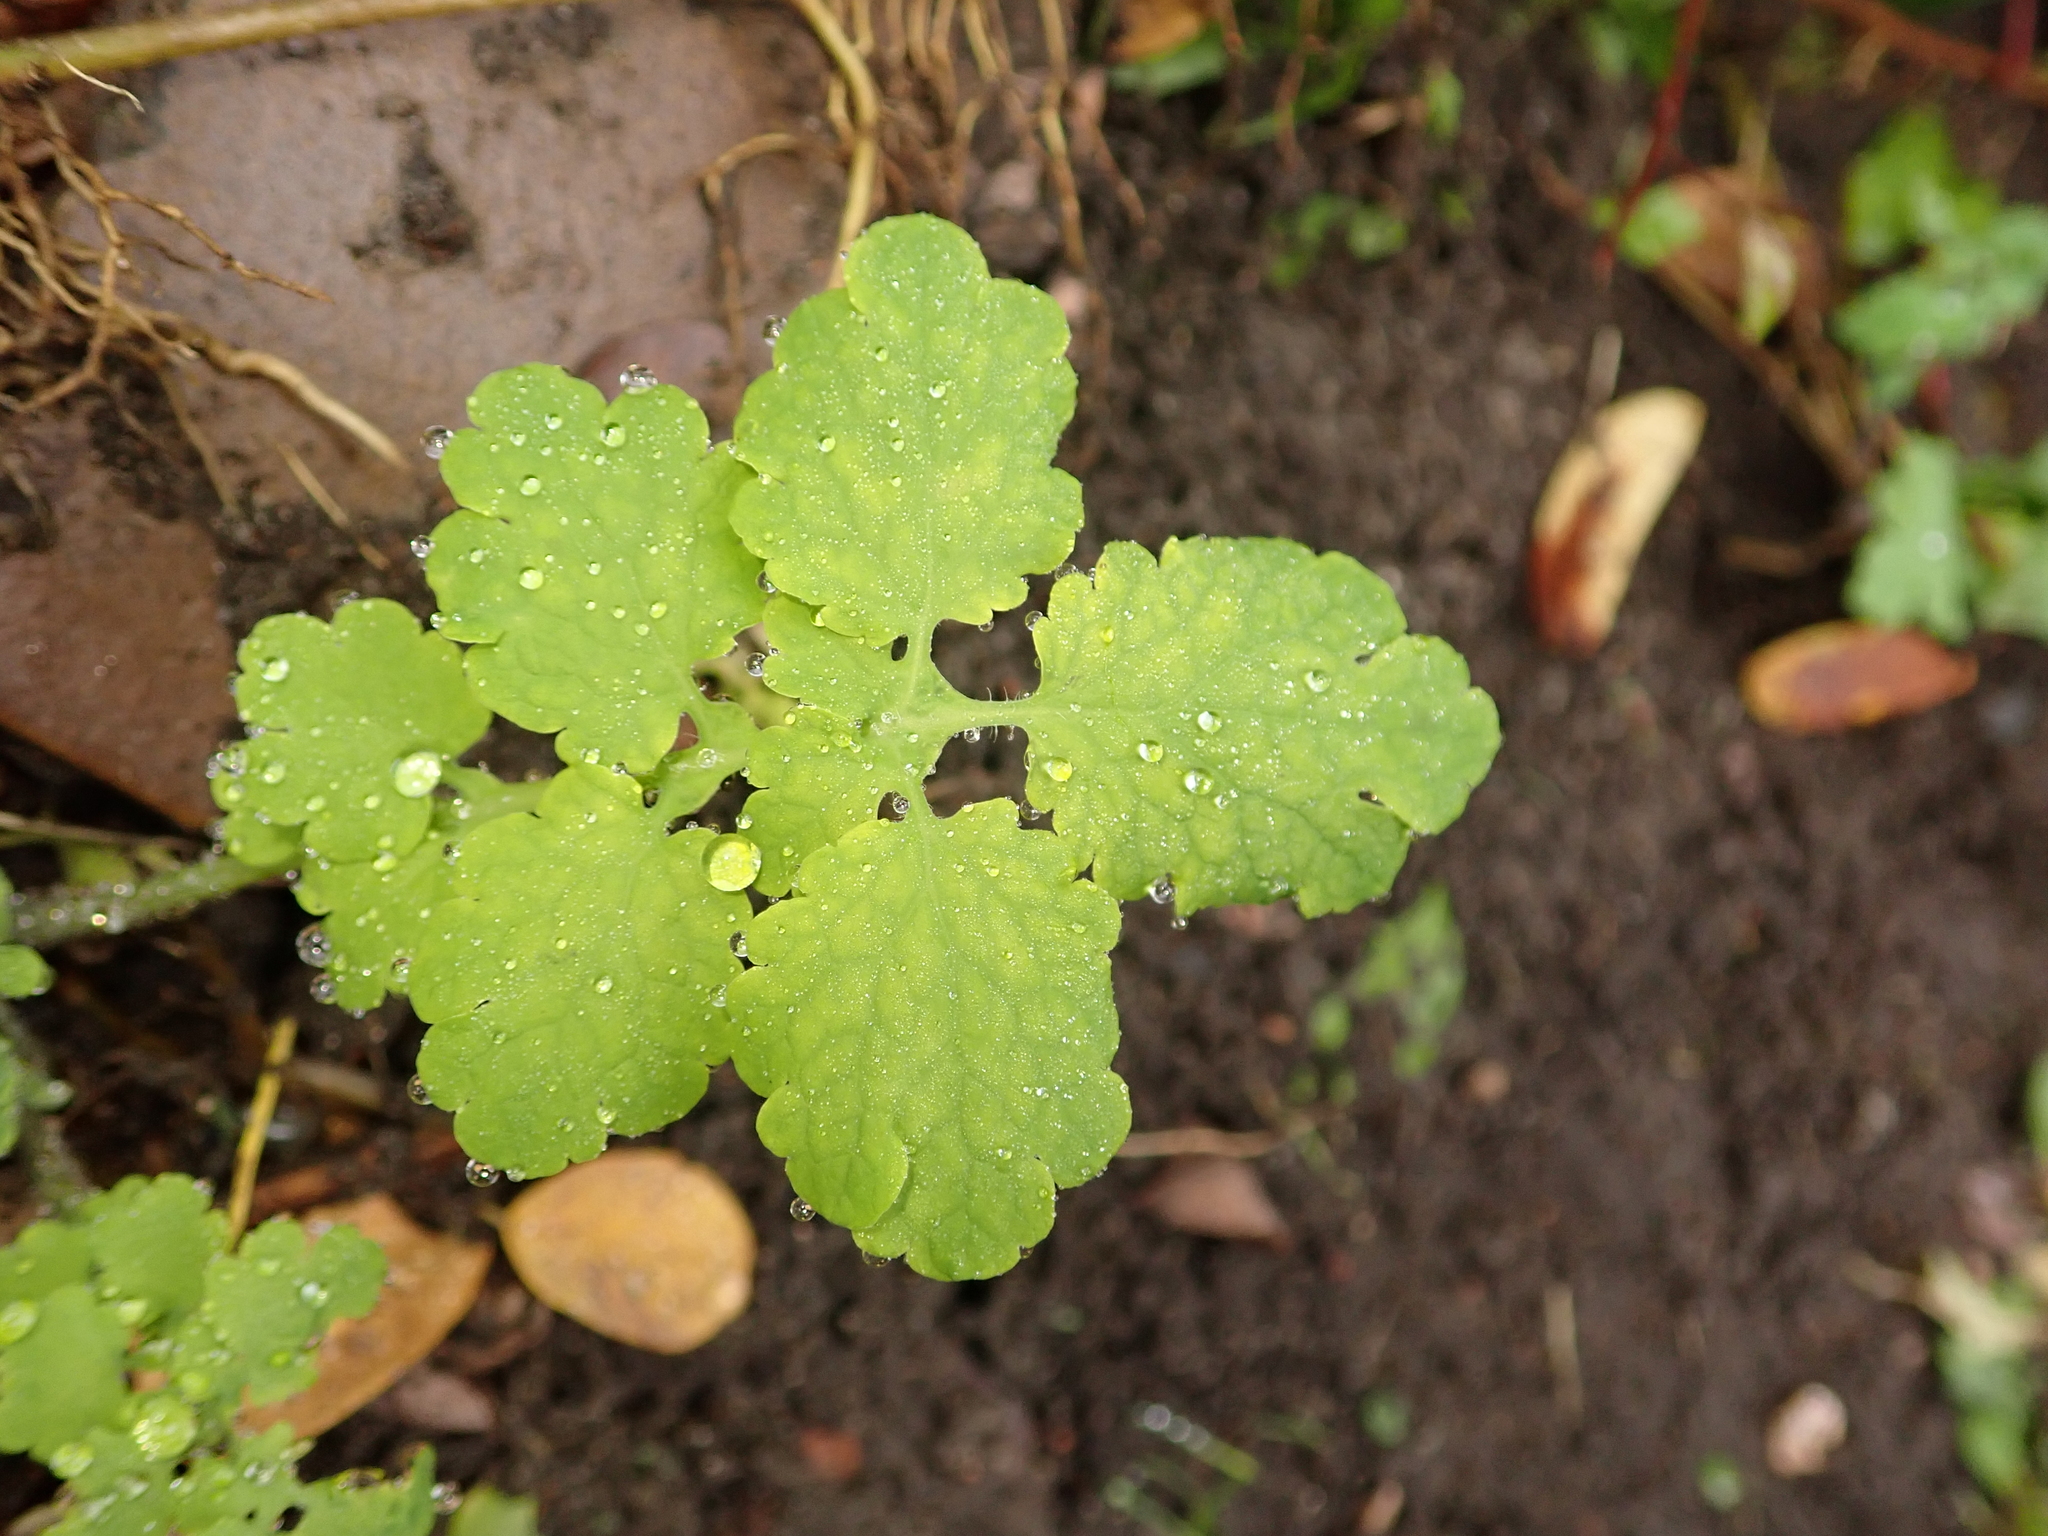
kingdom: Plantae
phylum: Tracheophyta
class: Magnoliopsida
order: Ranunculales
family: Papaveraceae
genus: Chelidonium
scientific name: Chelidonium majus
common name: Greater celandine
